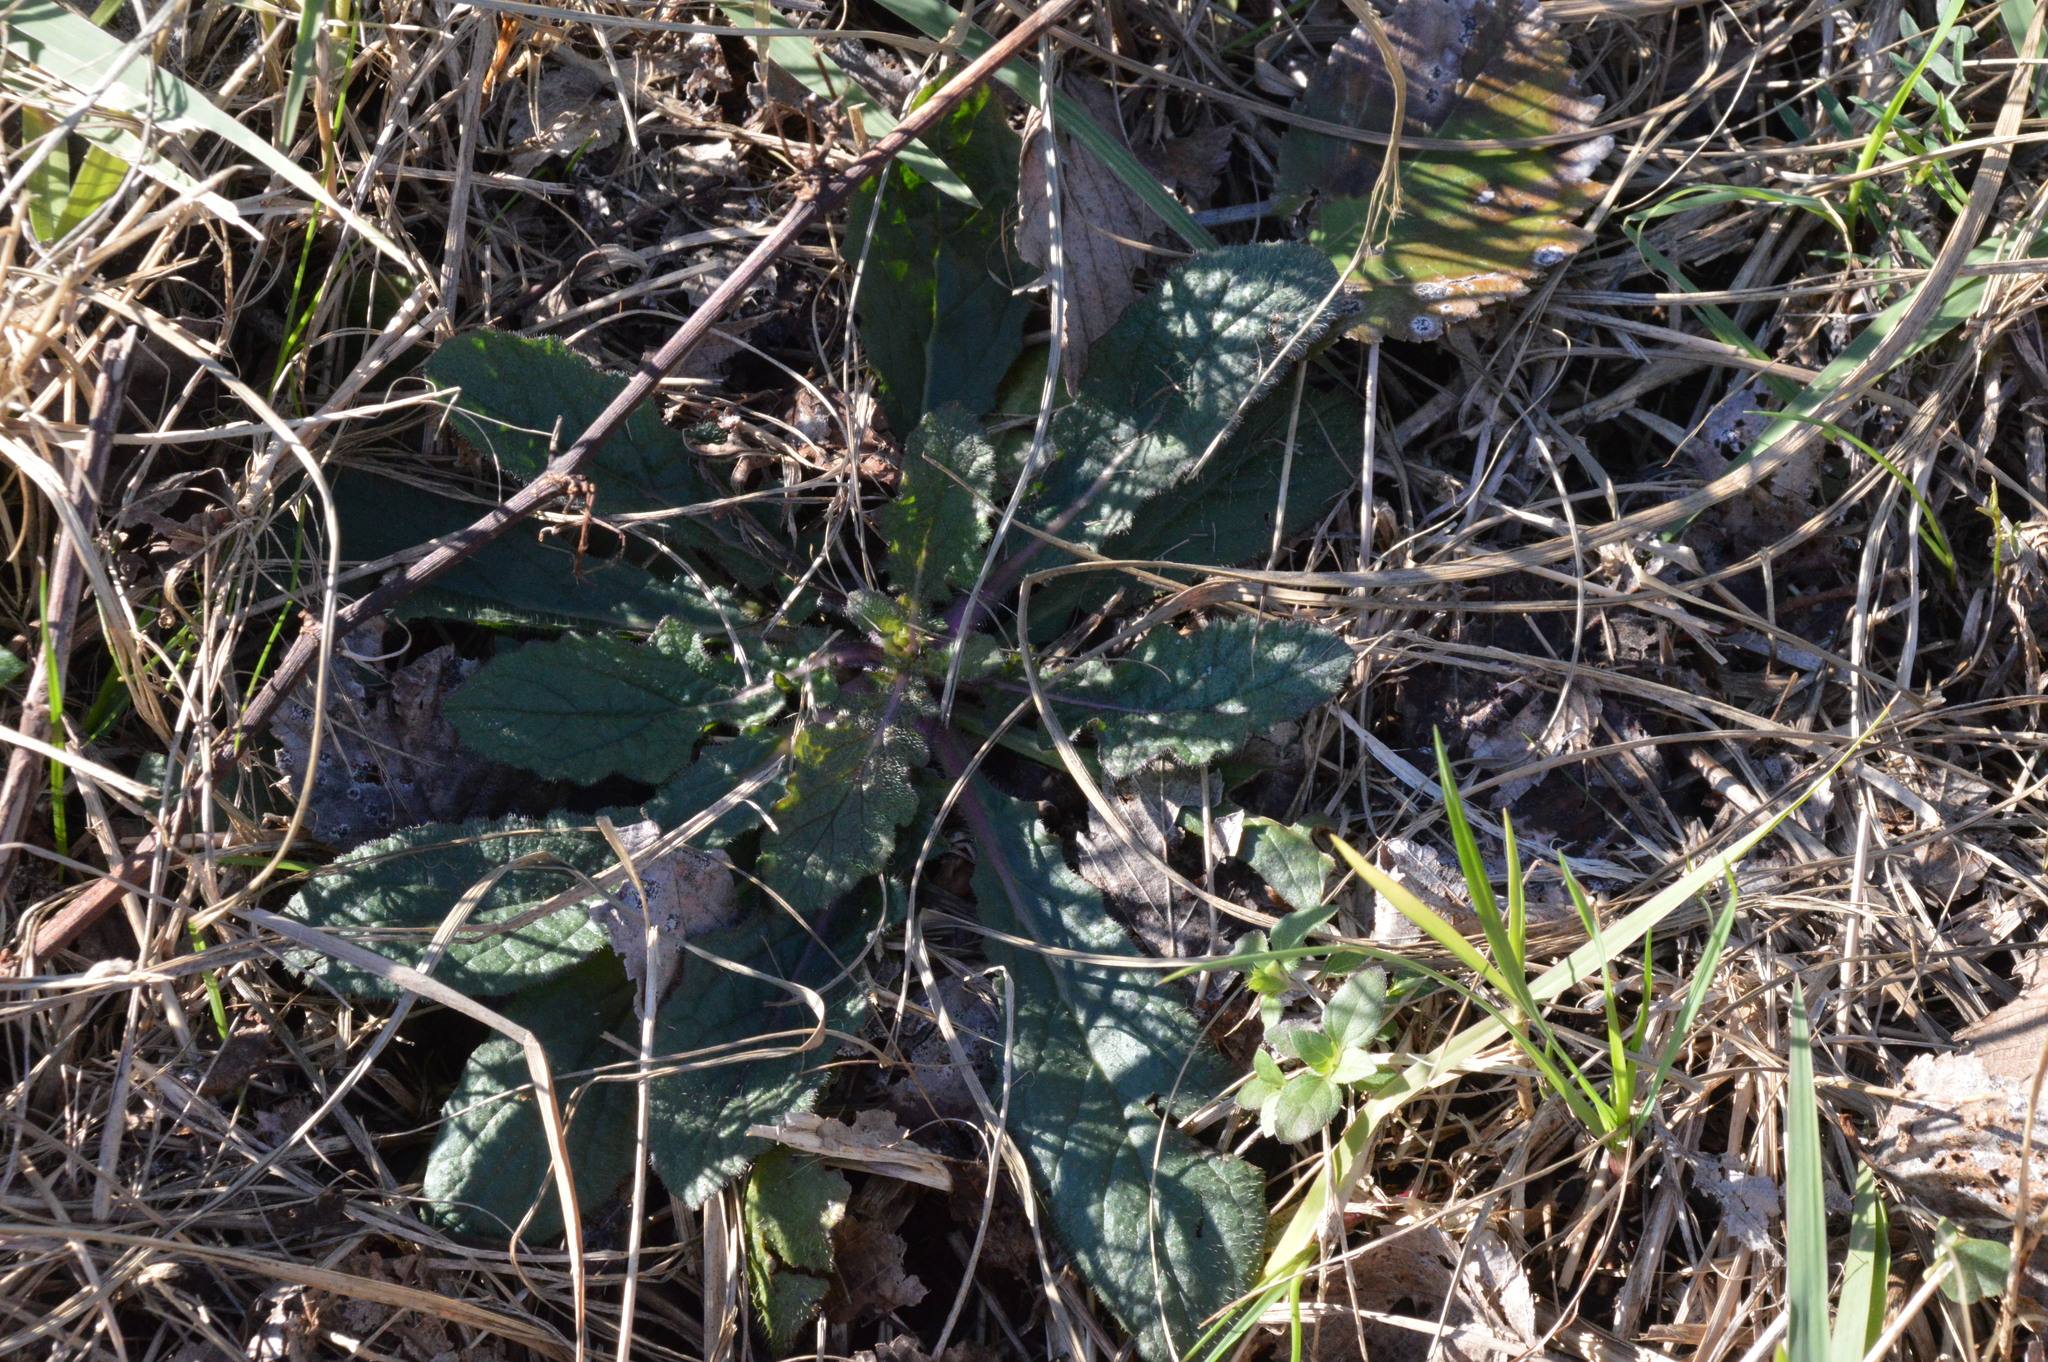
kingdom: Plantae
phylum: Tracheophyta
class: Magnoliopsida
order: Lamiales
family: Lamiaceae
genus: Salvia
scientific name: Salvia lyrata
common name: Cancerweed
